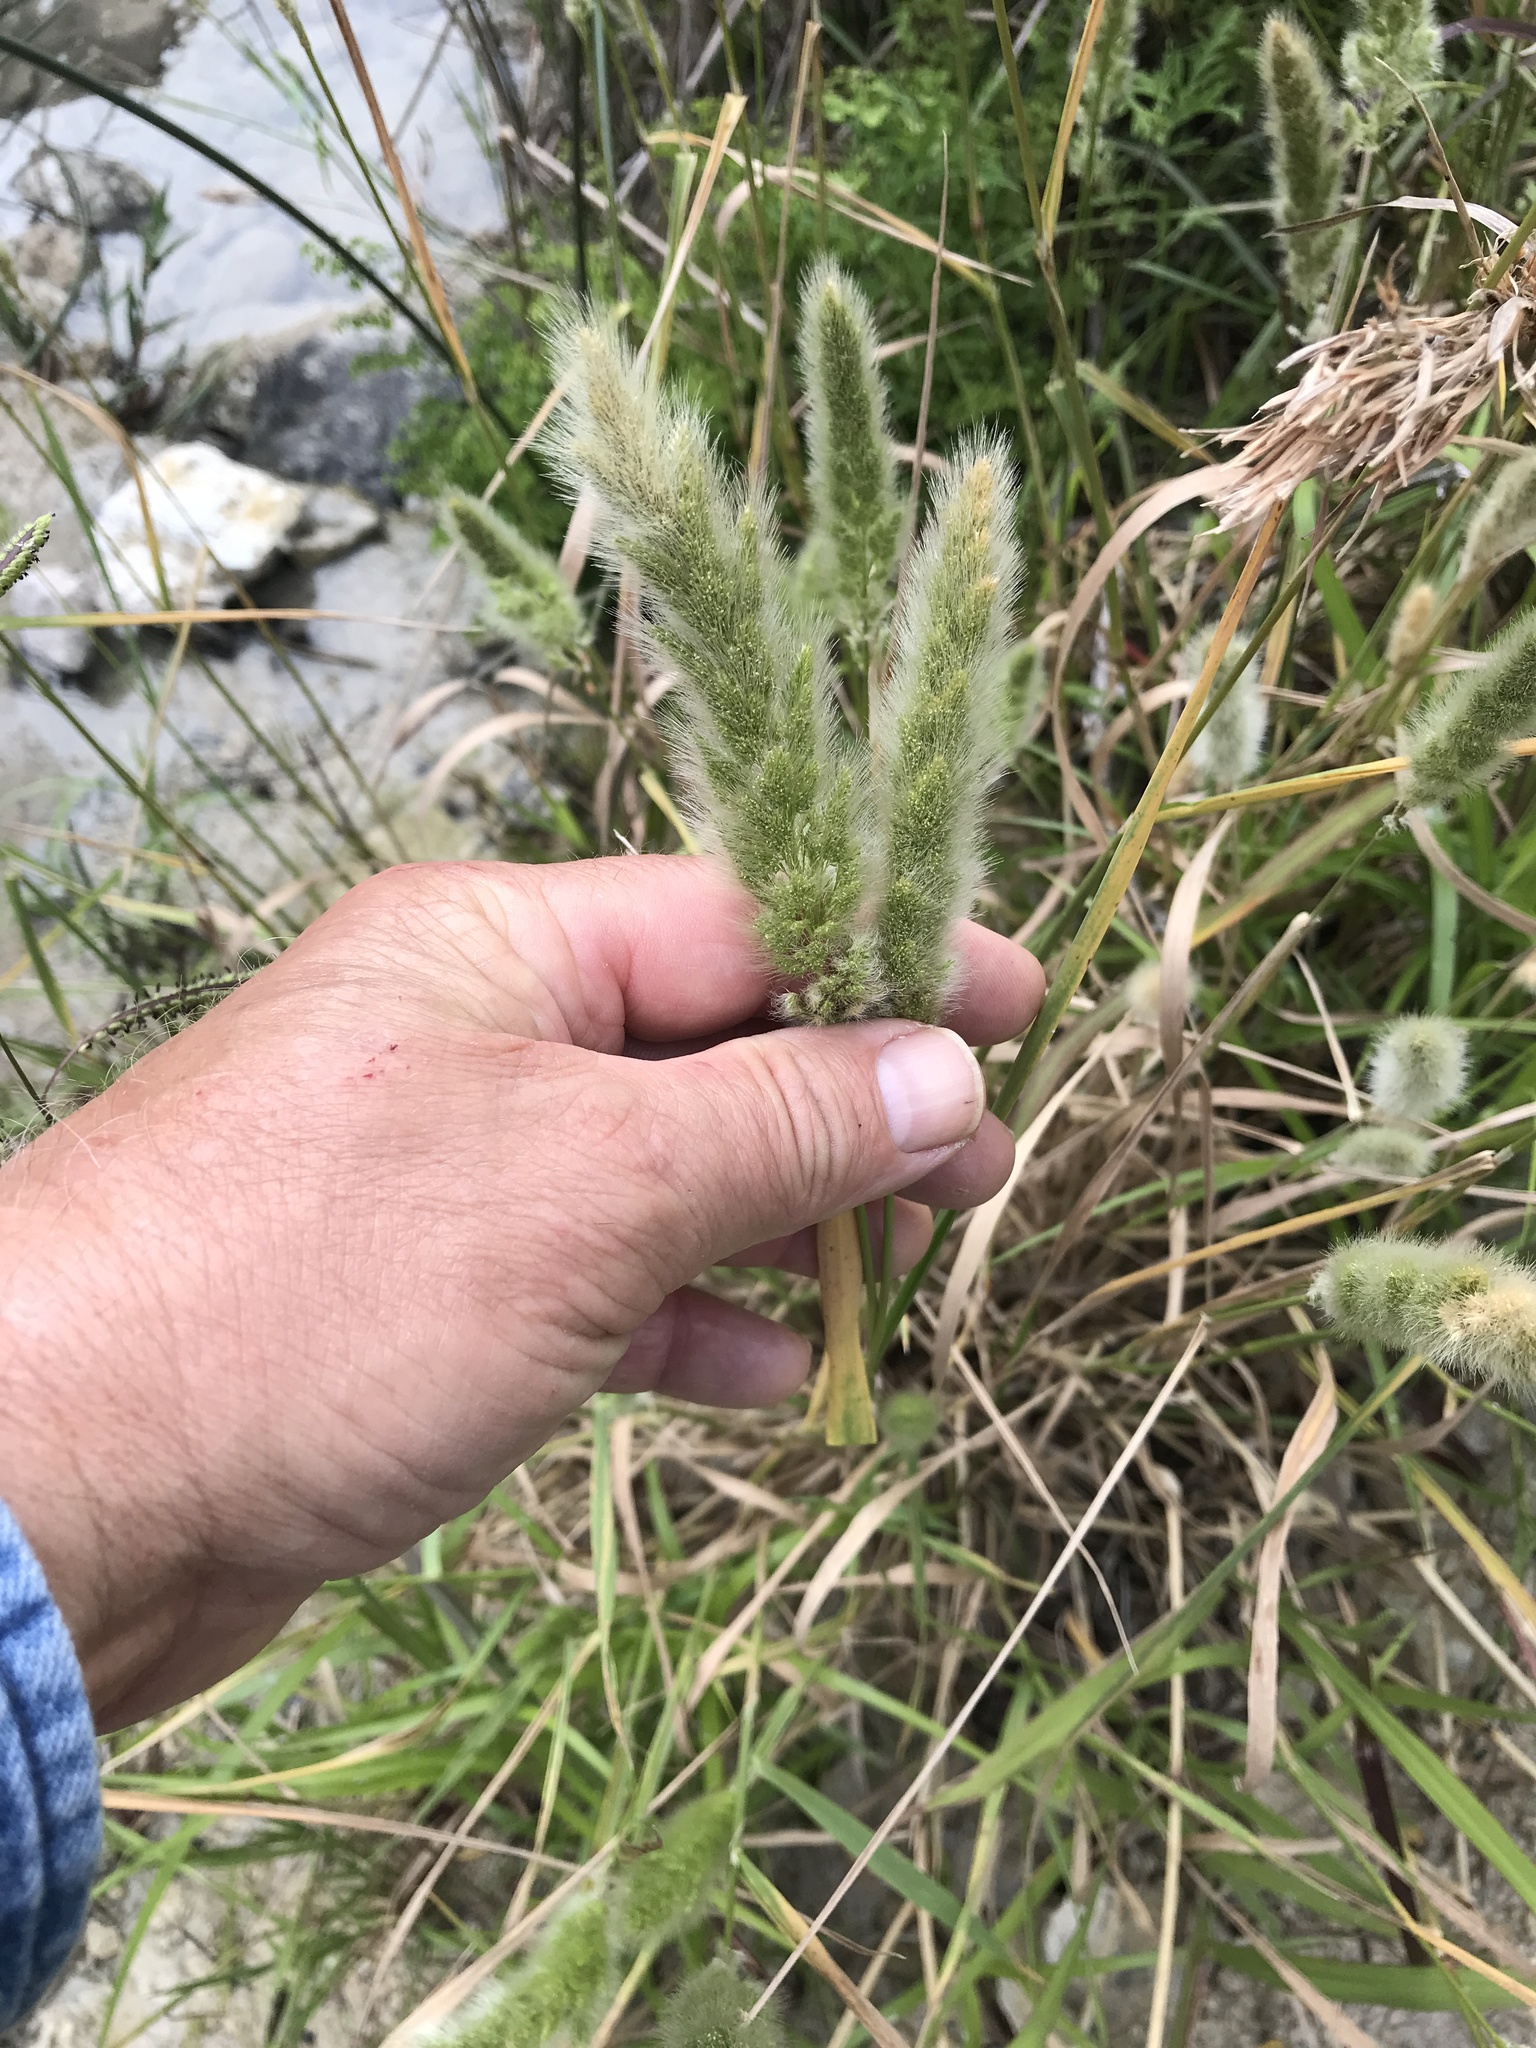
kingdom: Plantae
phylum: Tracheophyta
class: Liliopsida
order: Poales
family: Poaceae
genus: Polypogon
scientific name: Polypogon monspeliensis
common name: Annual rabbitsfoot grass
